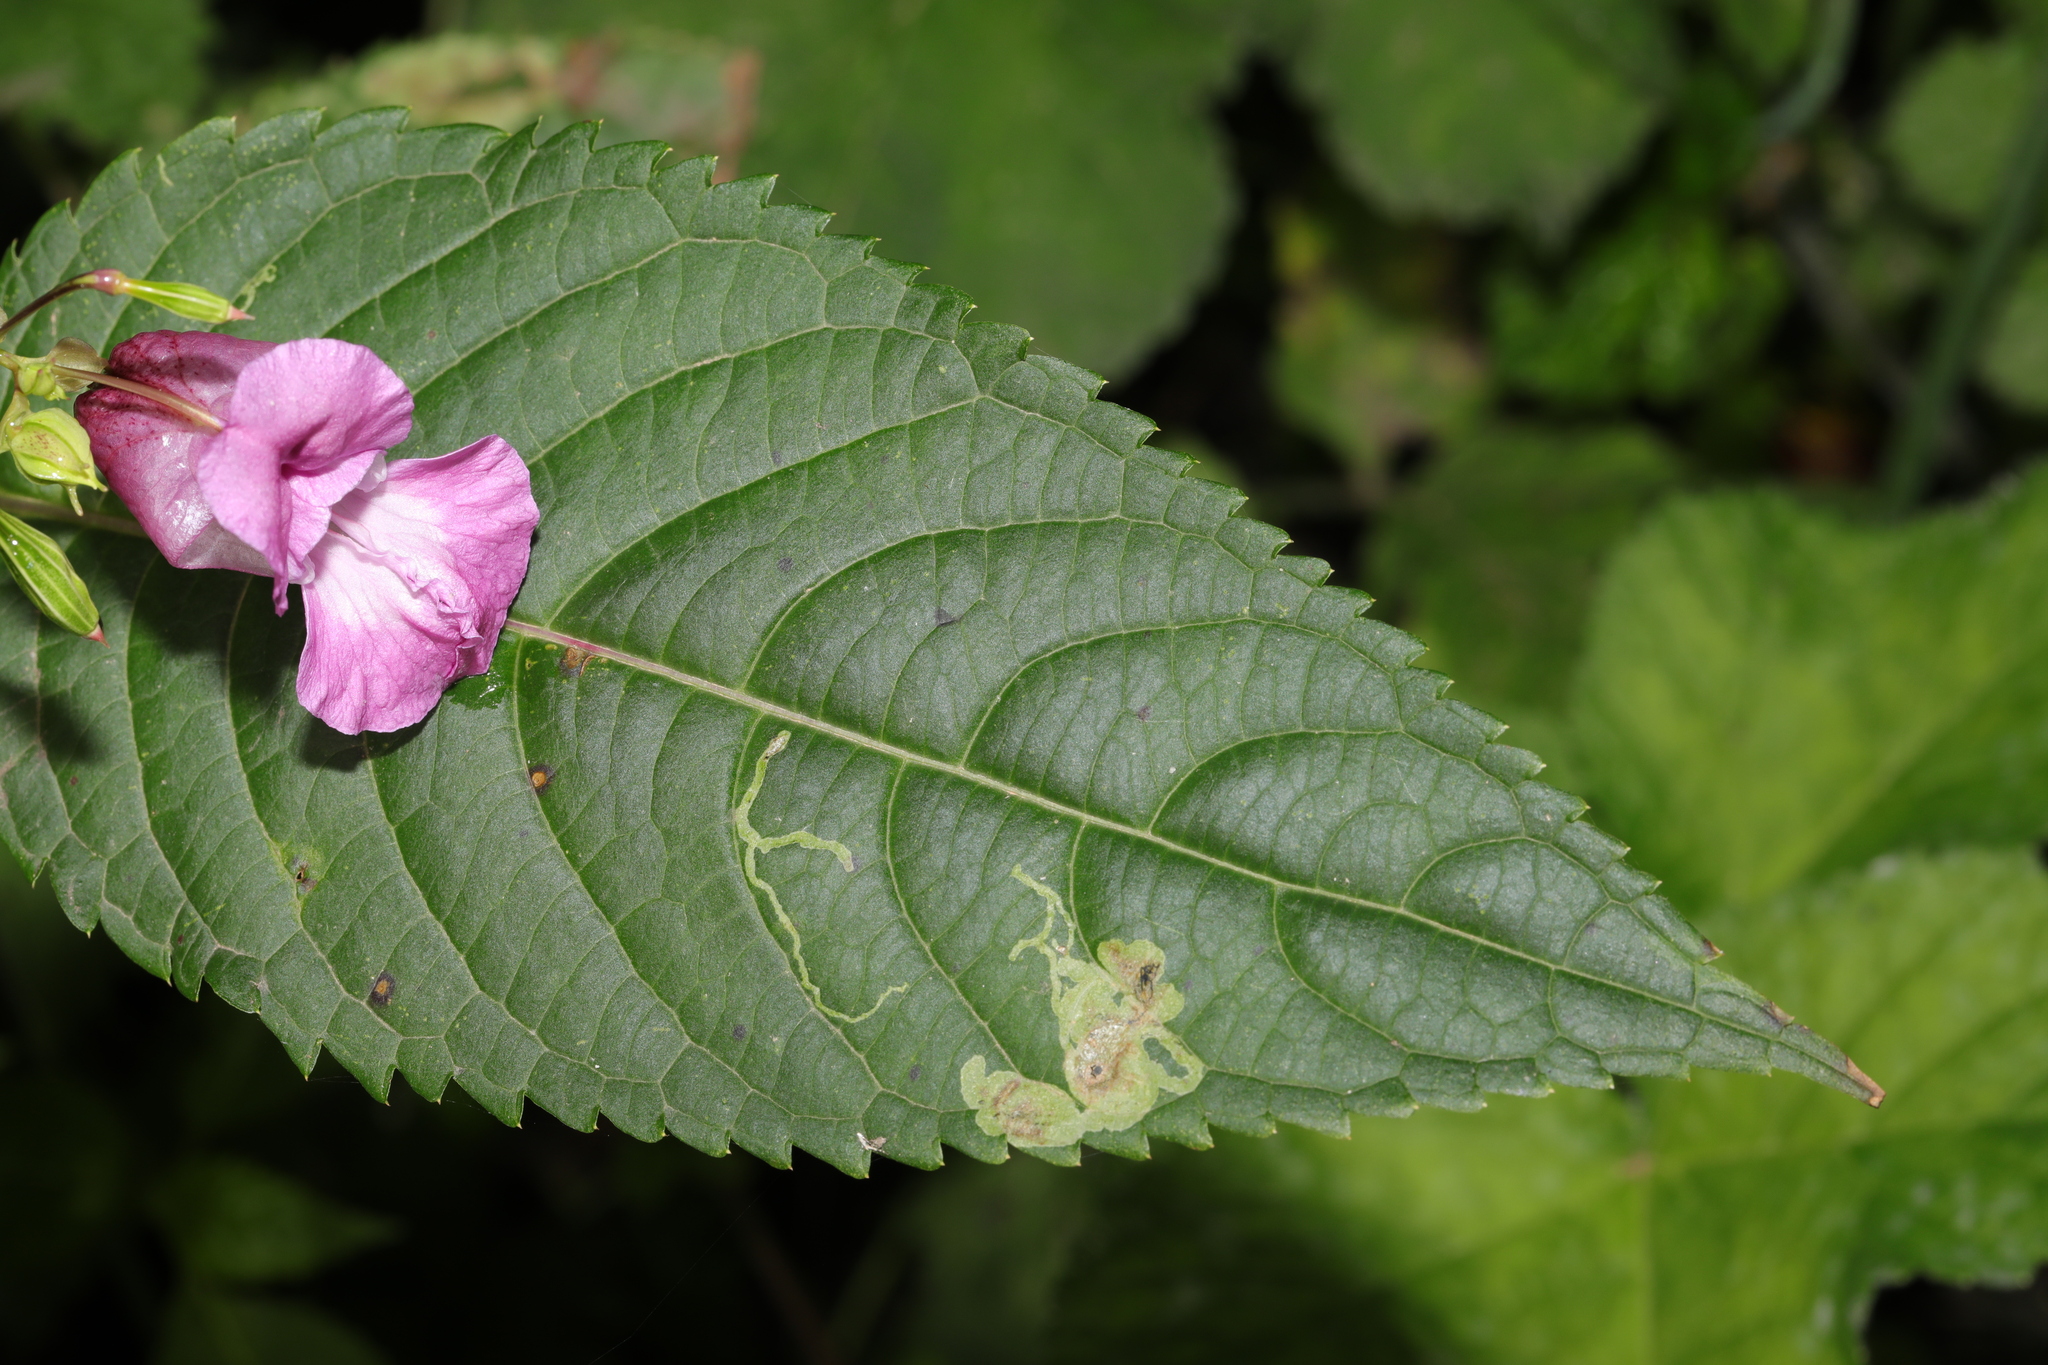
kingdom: Plantae
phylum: Tracheophyta
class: Magnoliopsida
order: Ericales
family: Balsaminaceae
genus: Impatiens
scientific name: Impatiens glandulifera
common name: Himalayan balsam
